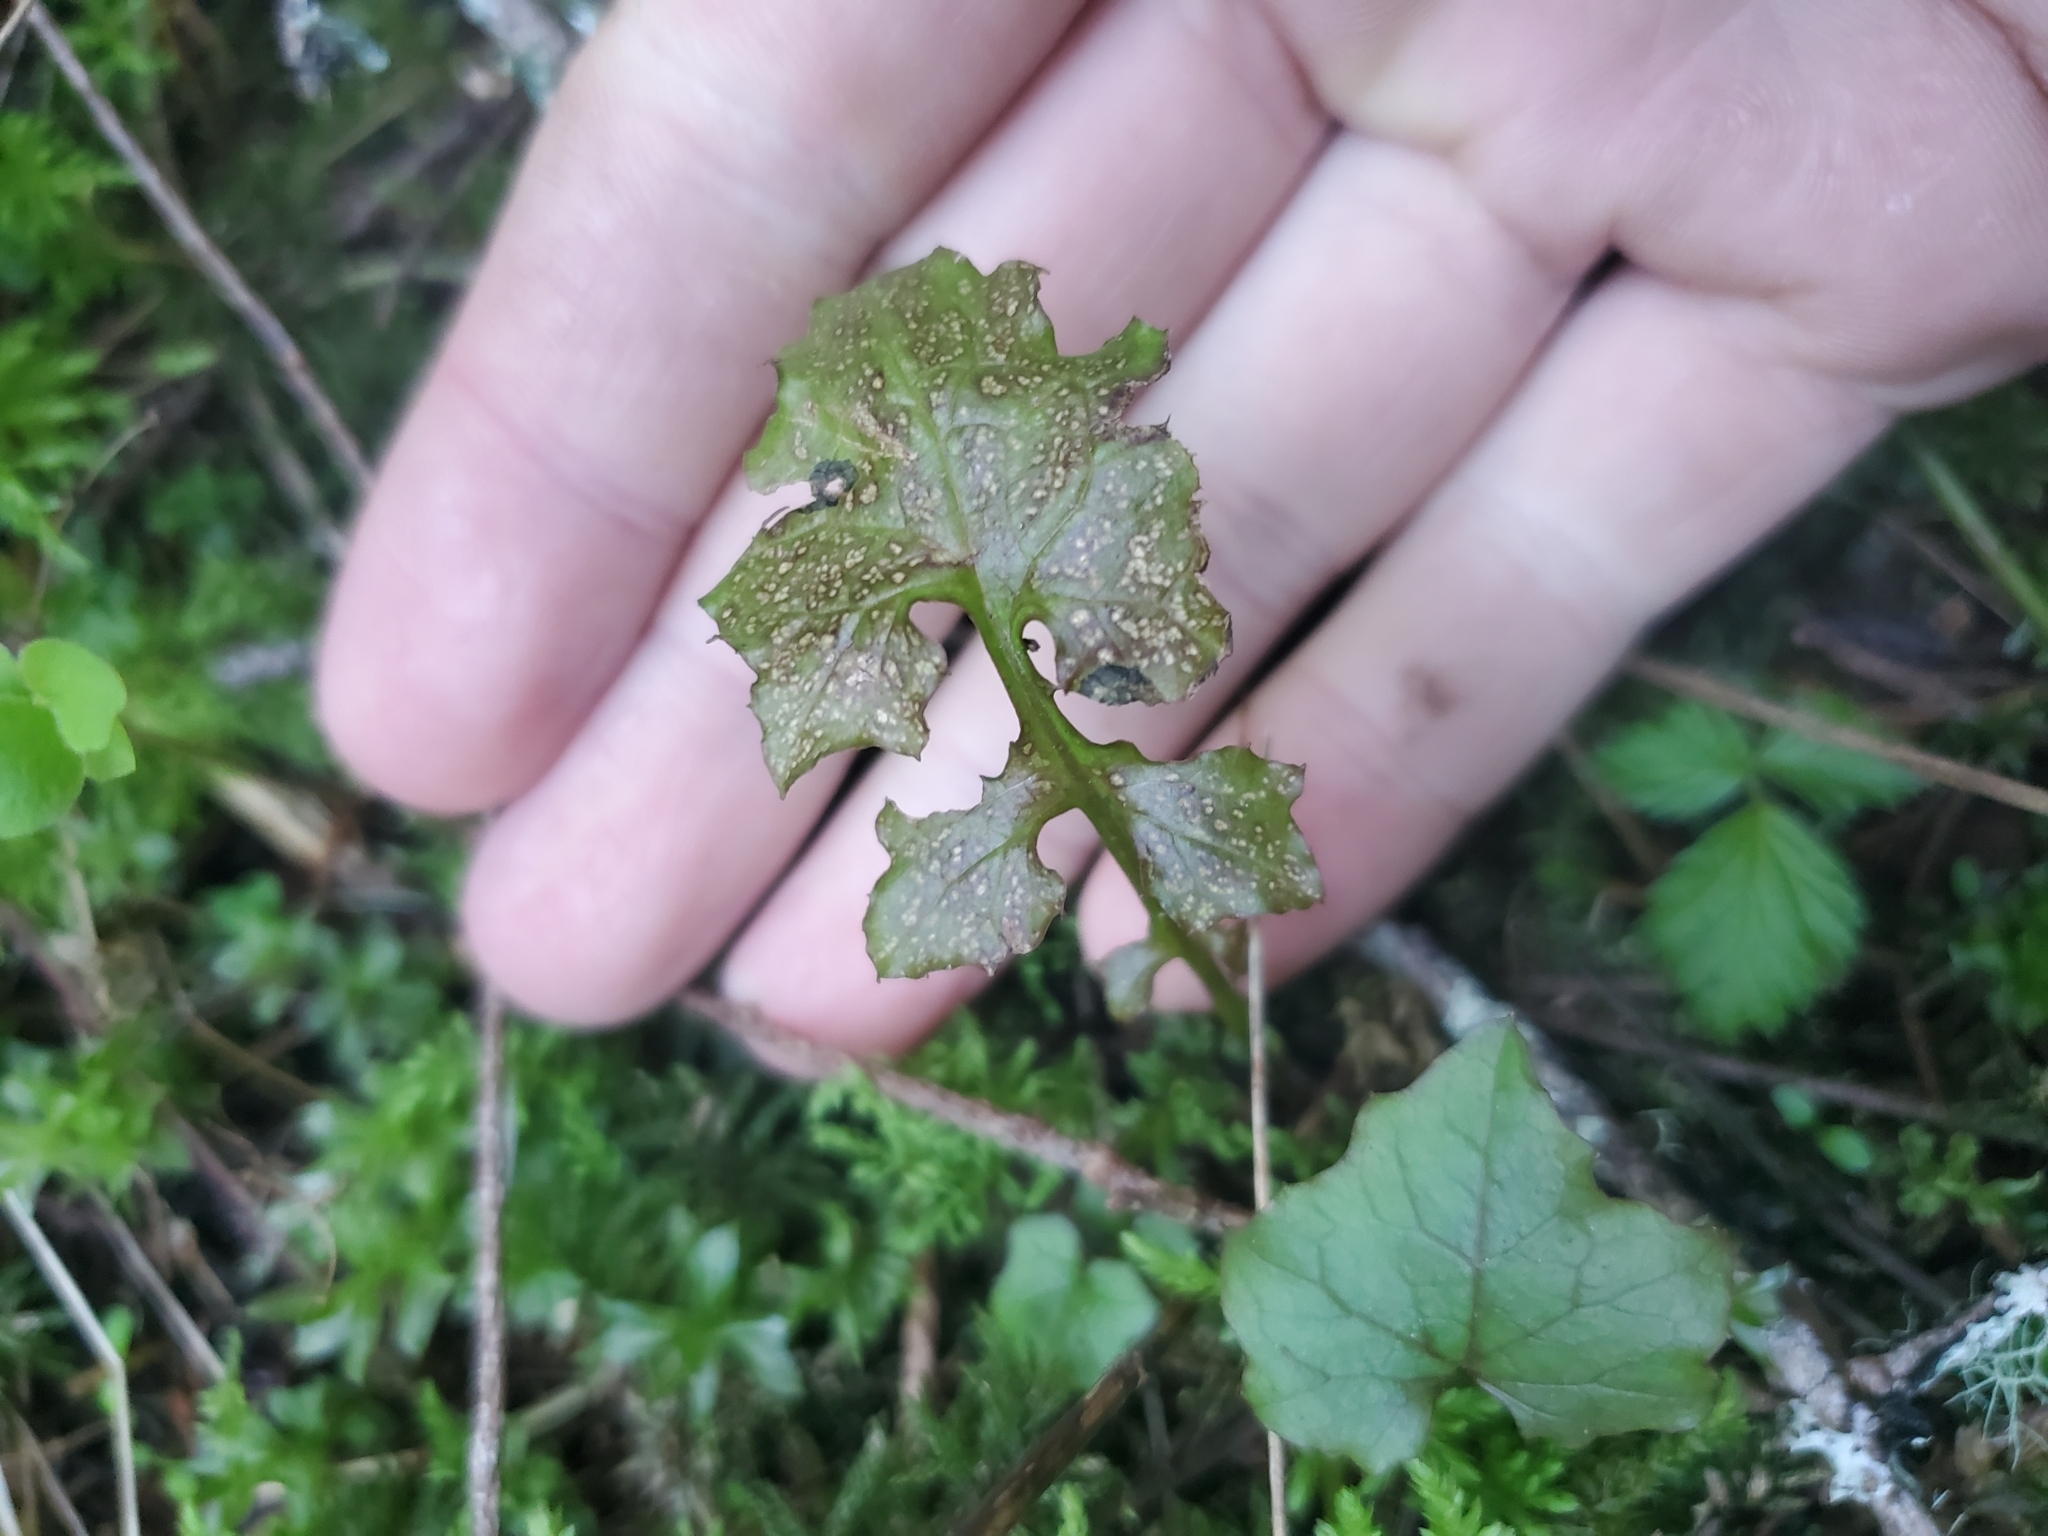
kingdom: Plantae
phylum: Tracheophyta
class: Magnoliopsida
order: Asterales
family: Asteraceae
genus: Mycelis
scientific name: Mycelis muralis
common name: Wall lettuce
